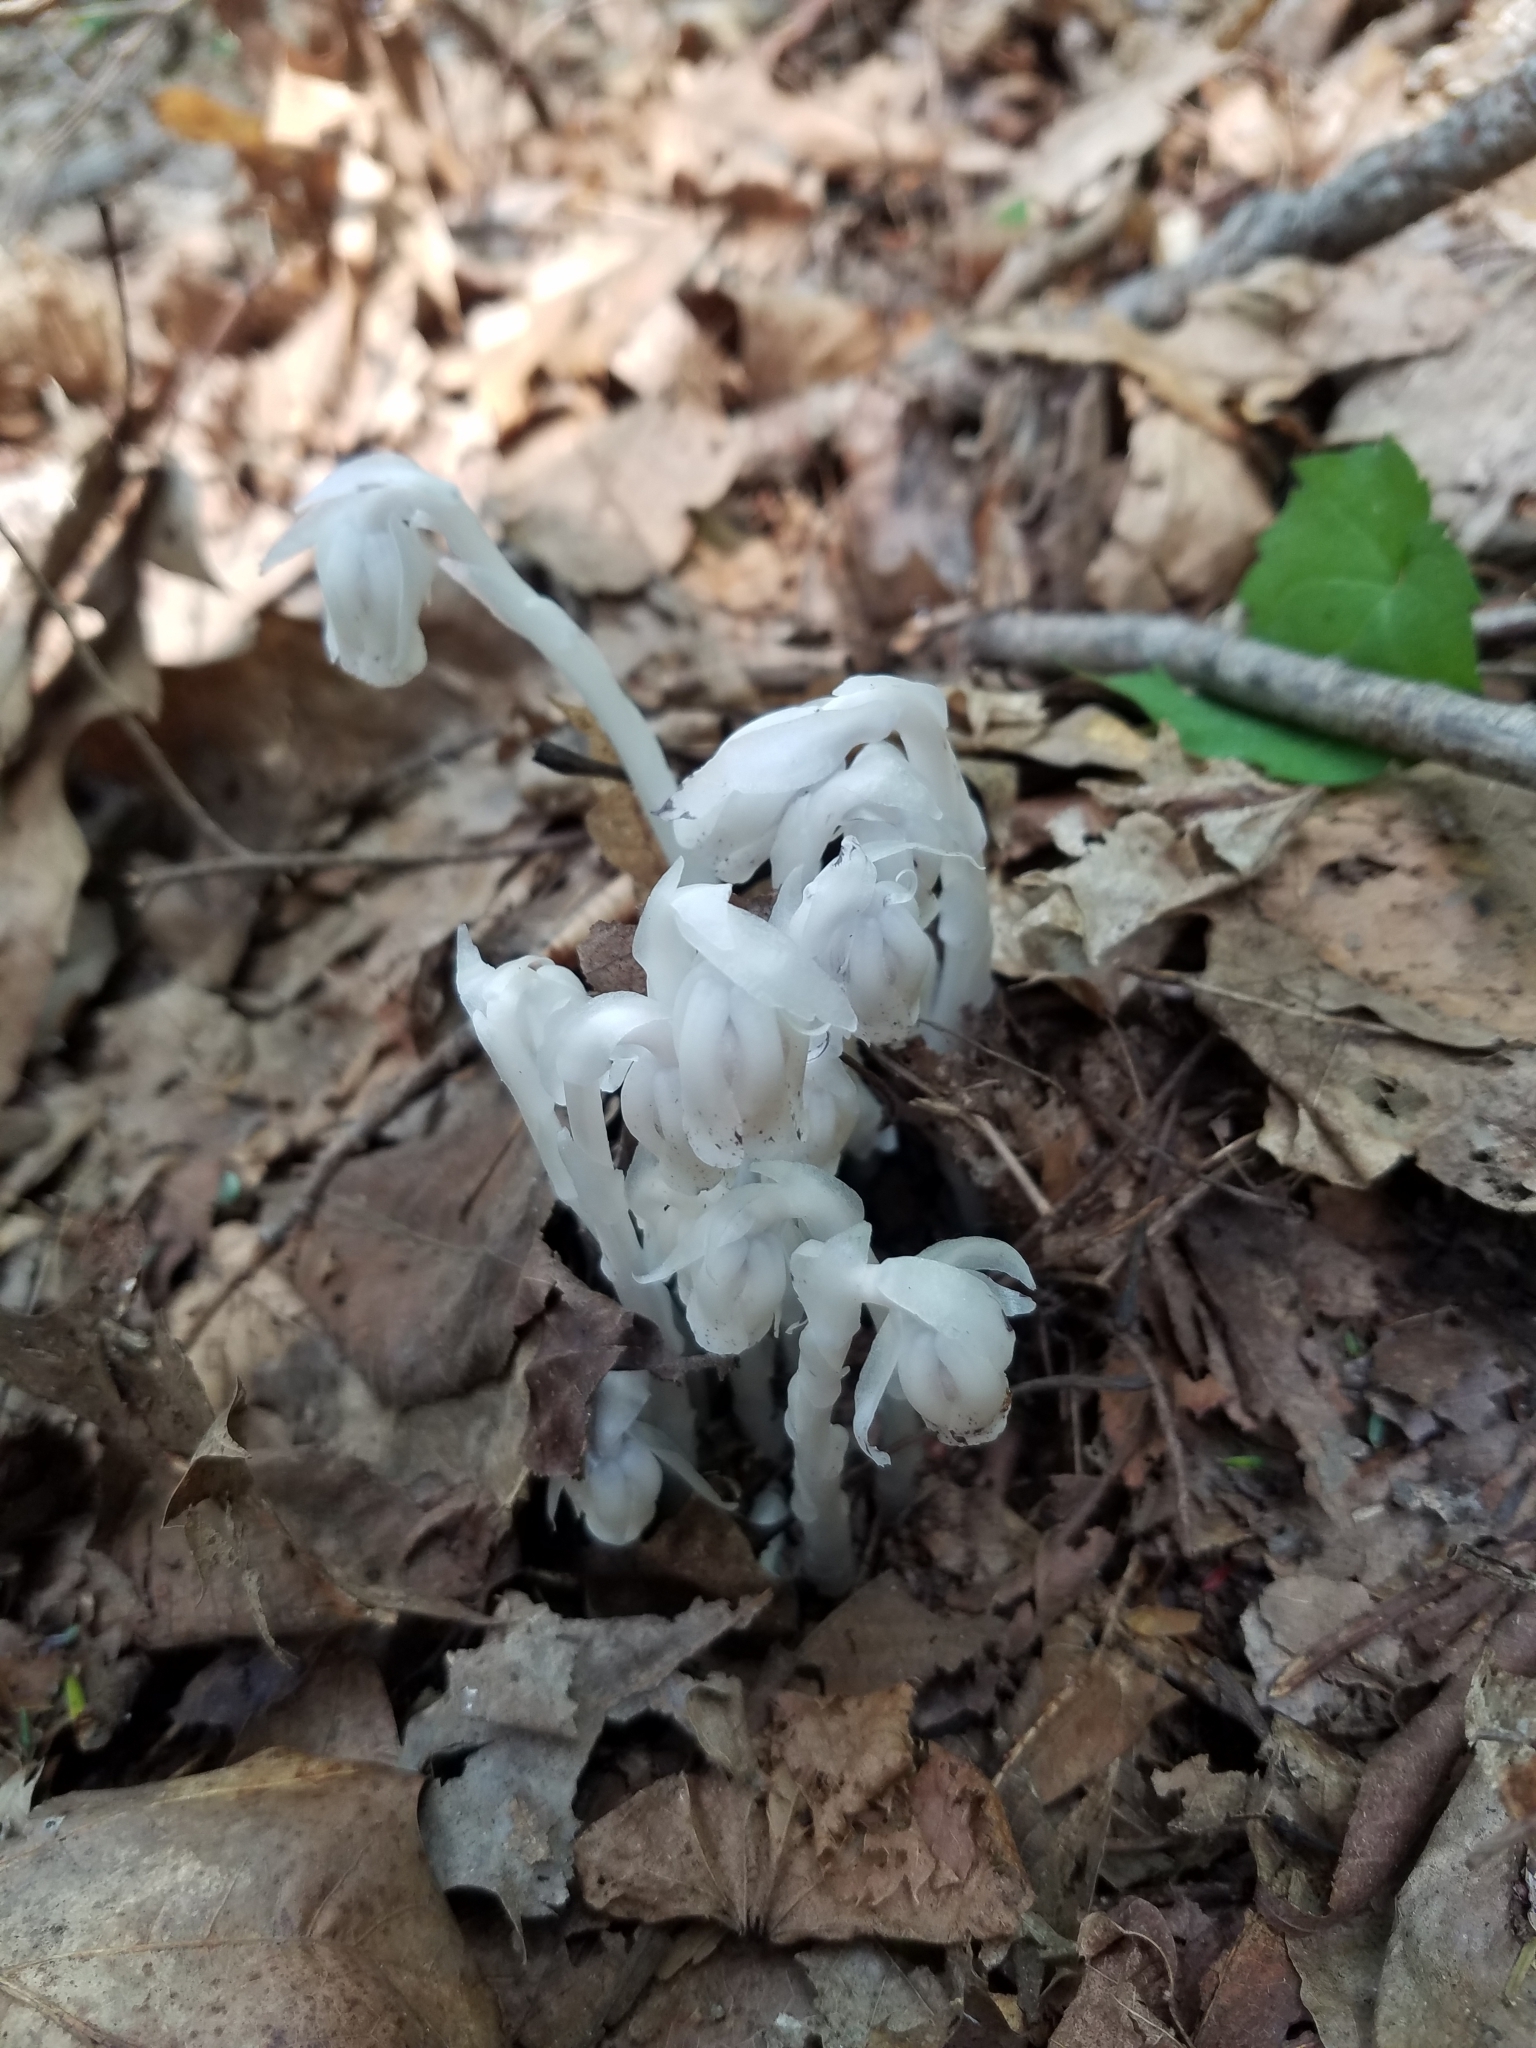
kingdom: Plantae
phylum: Tracheophyta
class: Magnoliopsida
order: Ericales
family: Ericaceae
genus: Monotropa
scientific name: Monotropa uniflora
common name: Convulsion root
